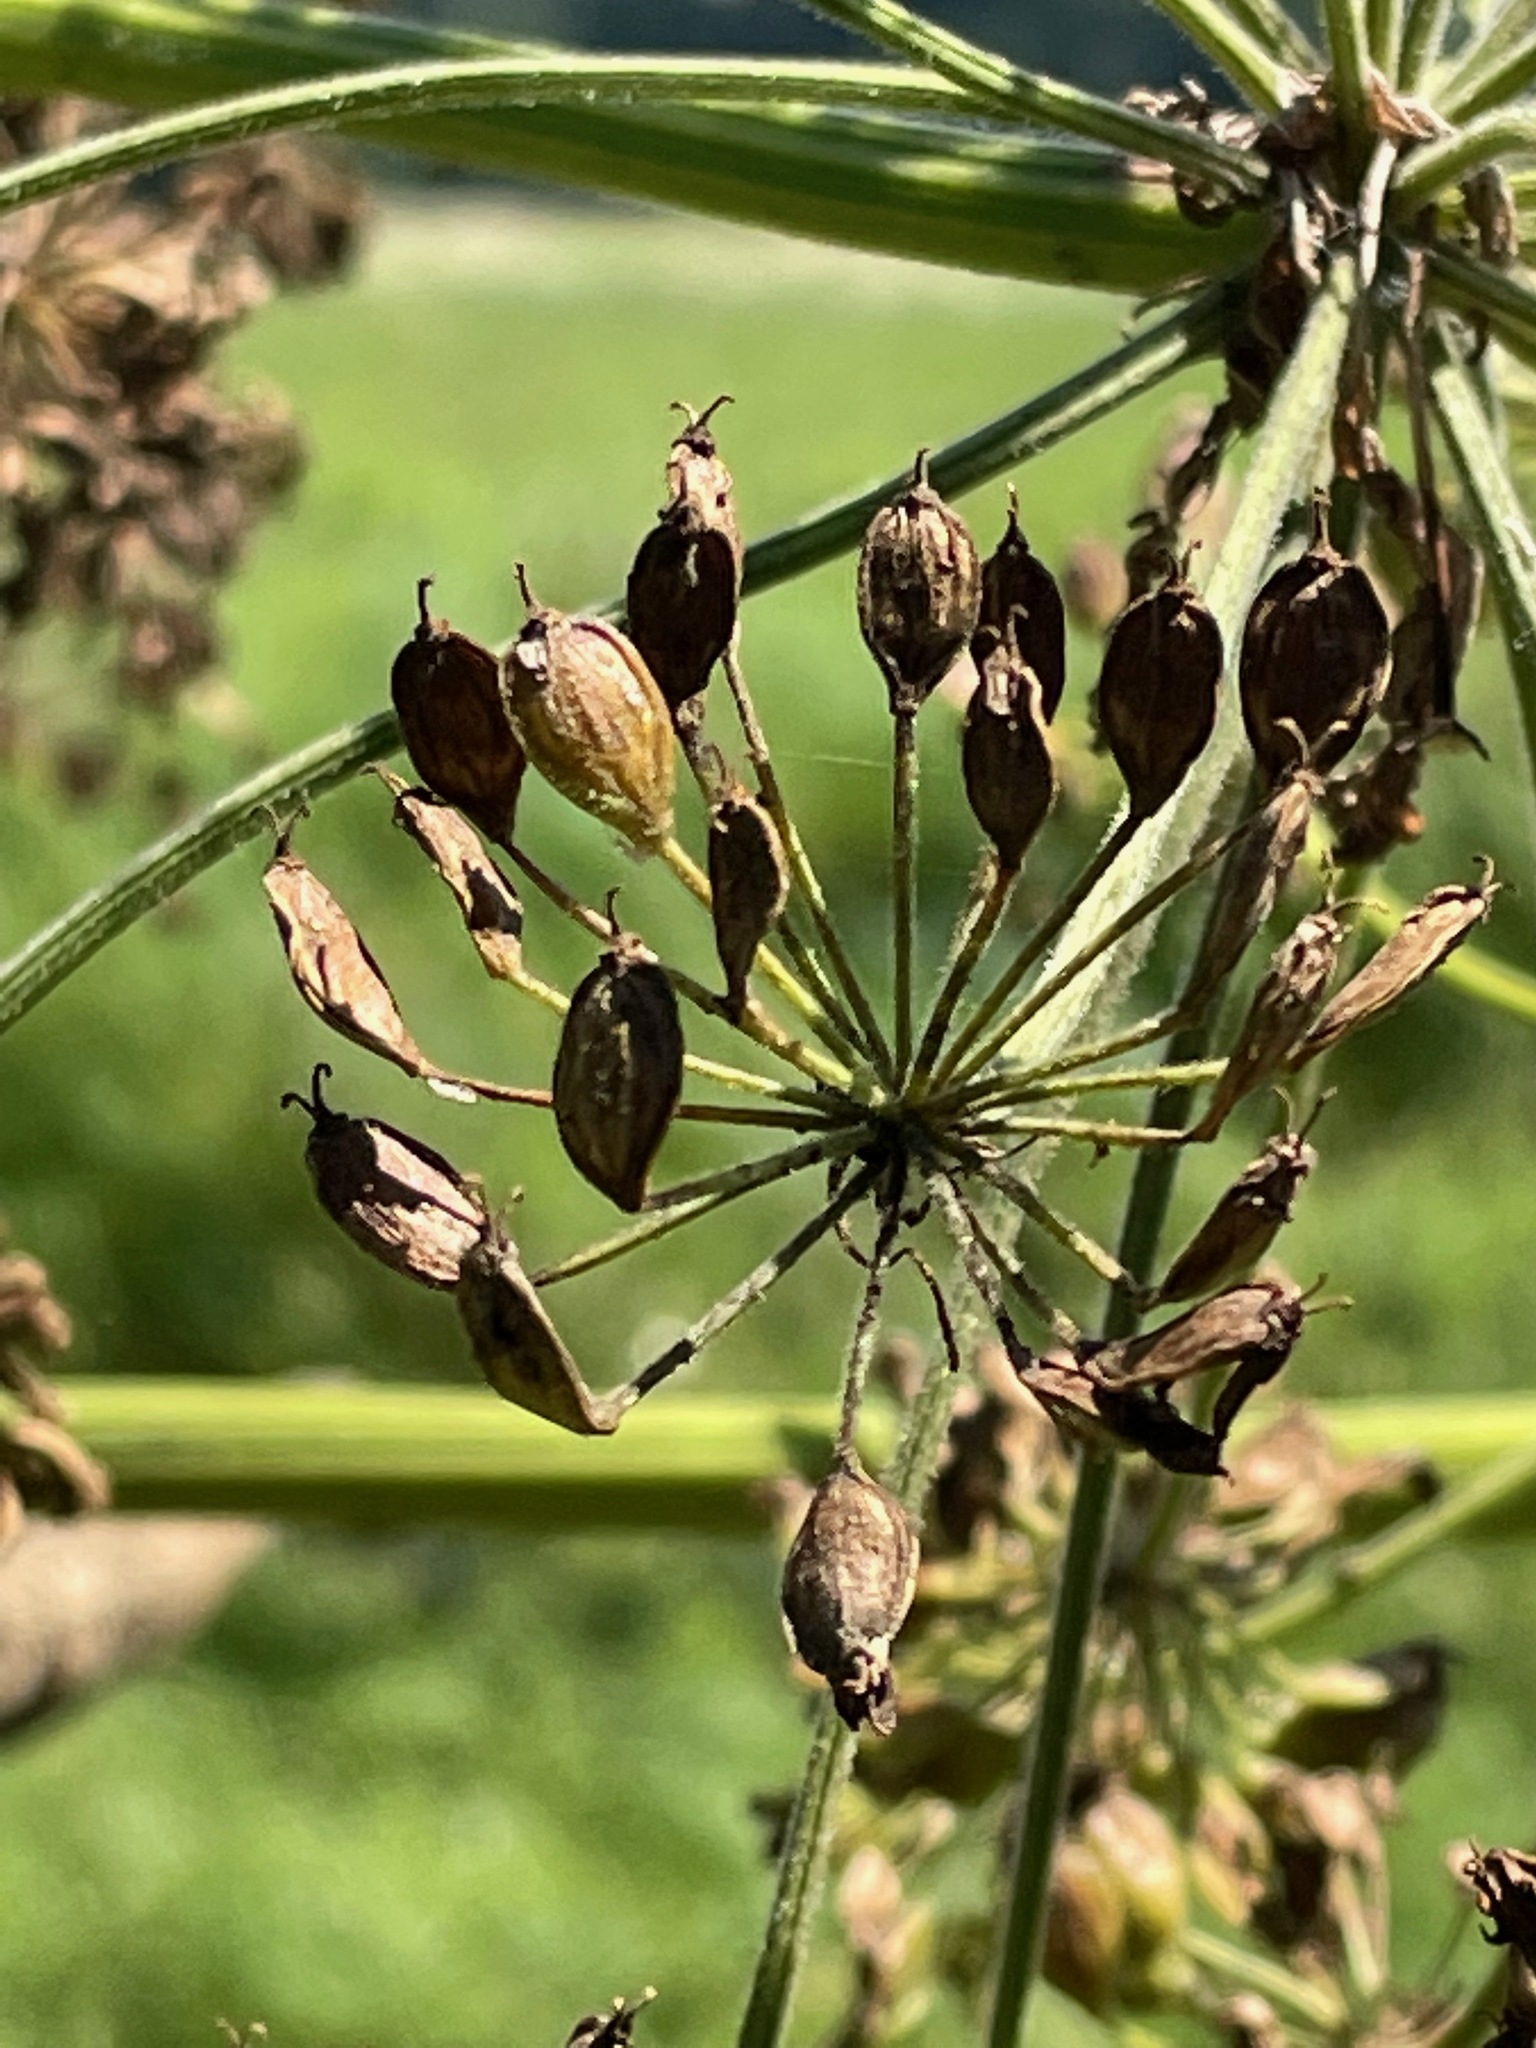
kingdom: Plantae
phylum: Tracheophyta
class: Magnoliopsida
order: Apiales
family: Apiaceae
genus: Heracleum
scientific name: Heracleum maximum
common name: American cow parsnip
